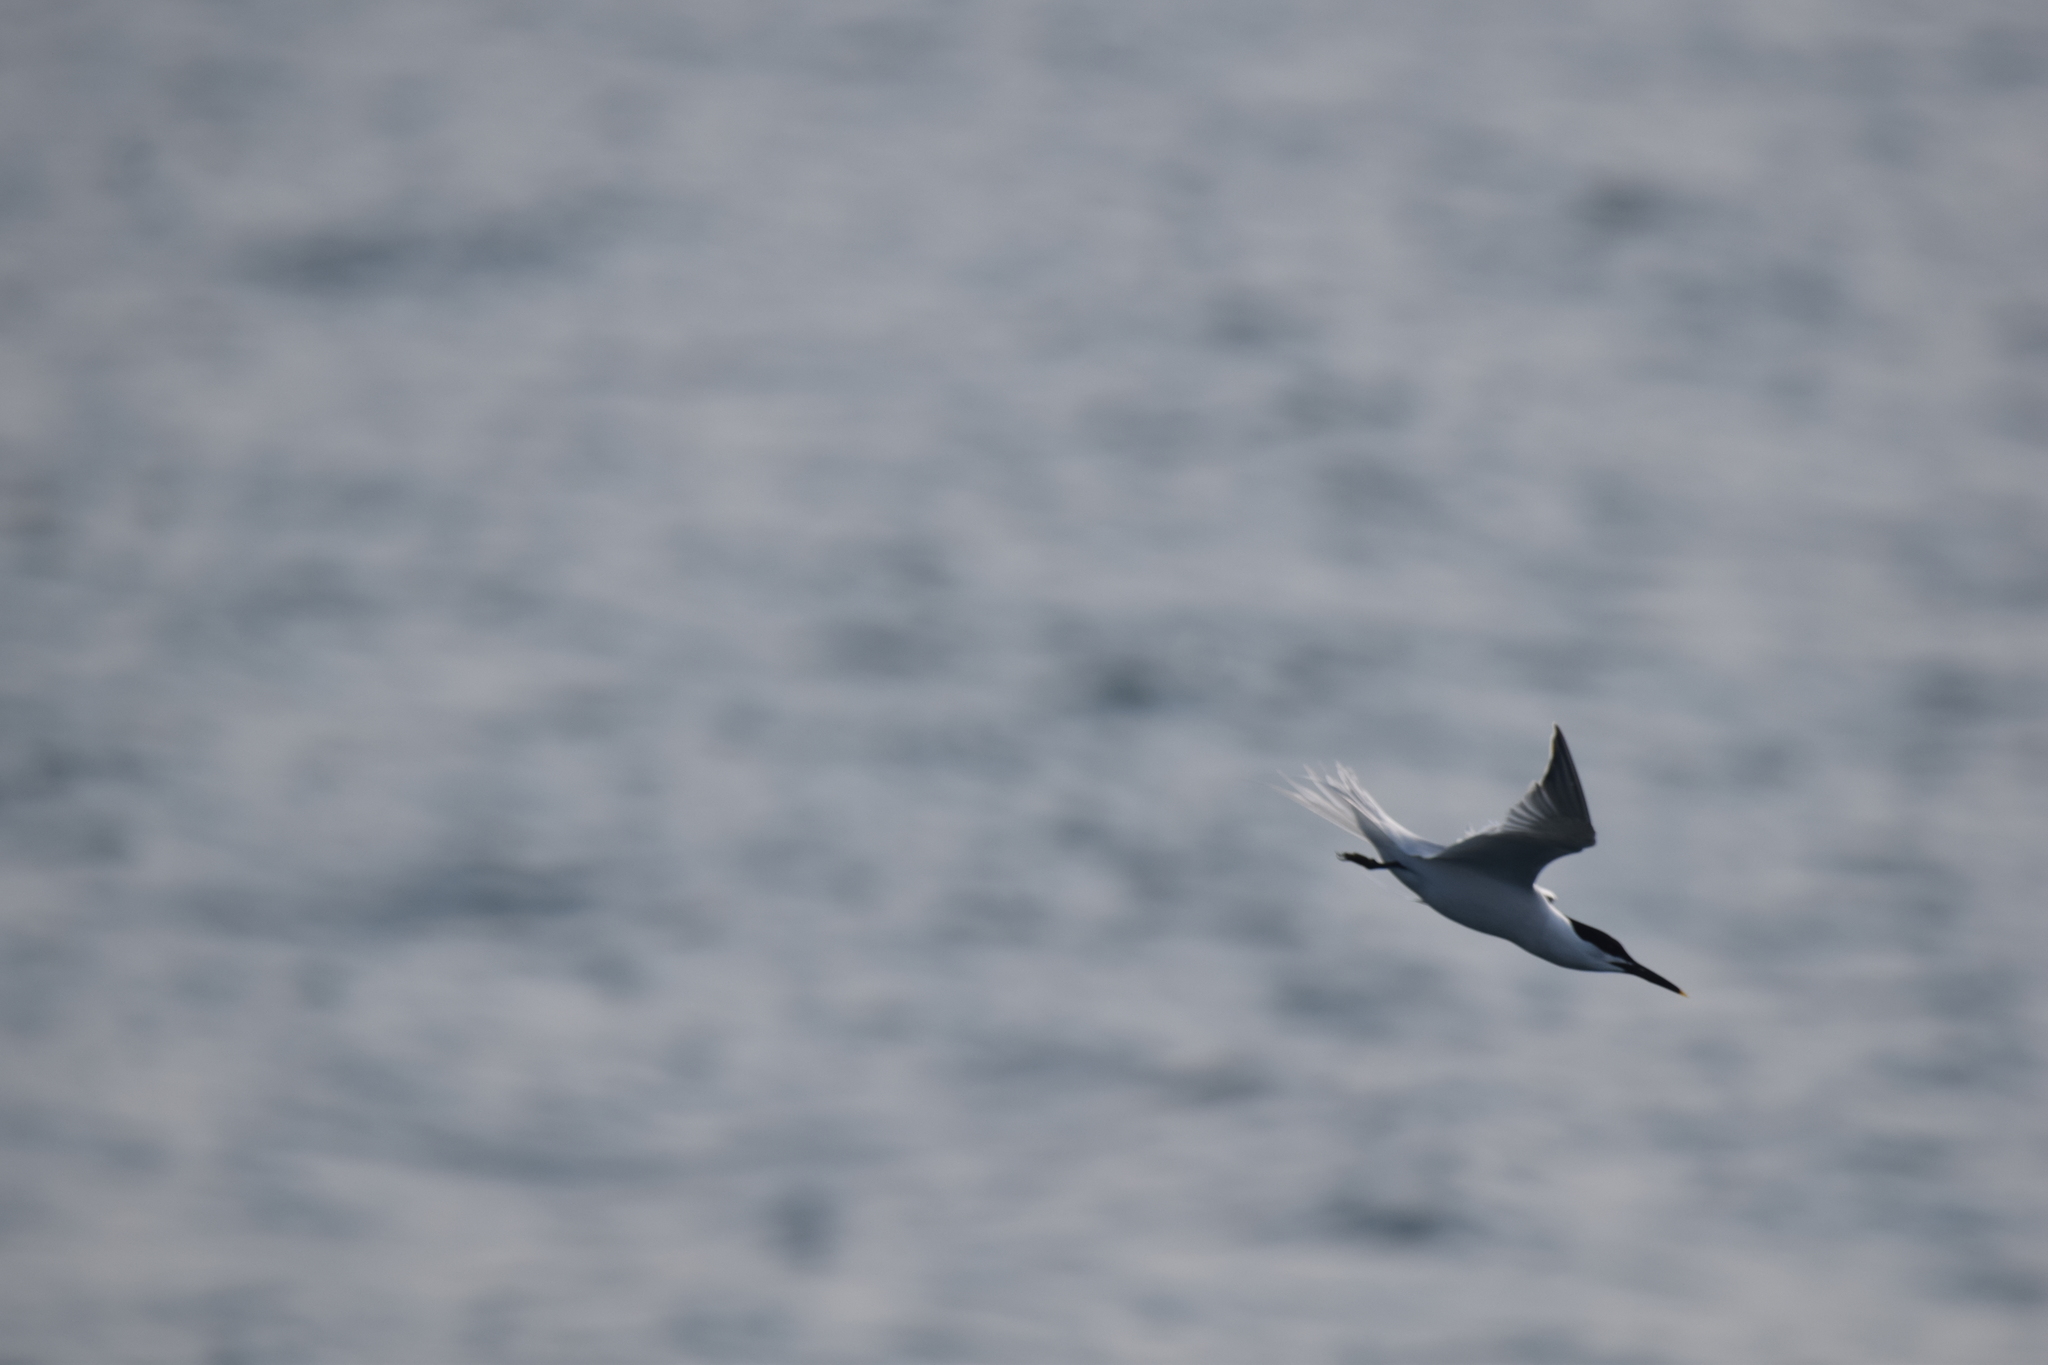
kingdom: Animalia
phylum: Chordata
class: Aves
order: Charadriiformes
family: Laridae
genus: Thalasseus
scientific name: Thalasseus sandvicensis
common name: Sandwich tern
